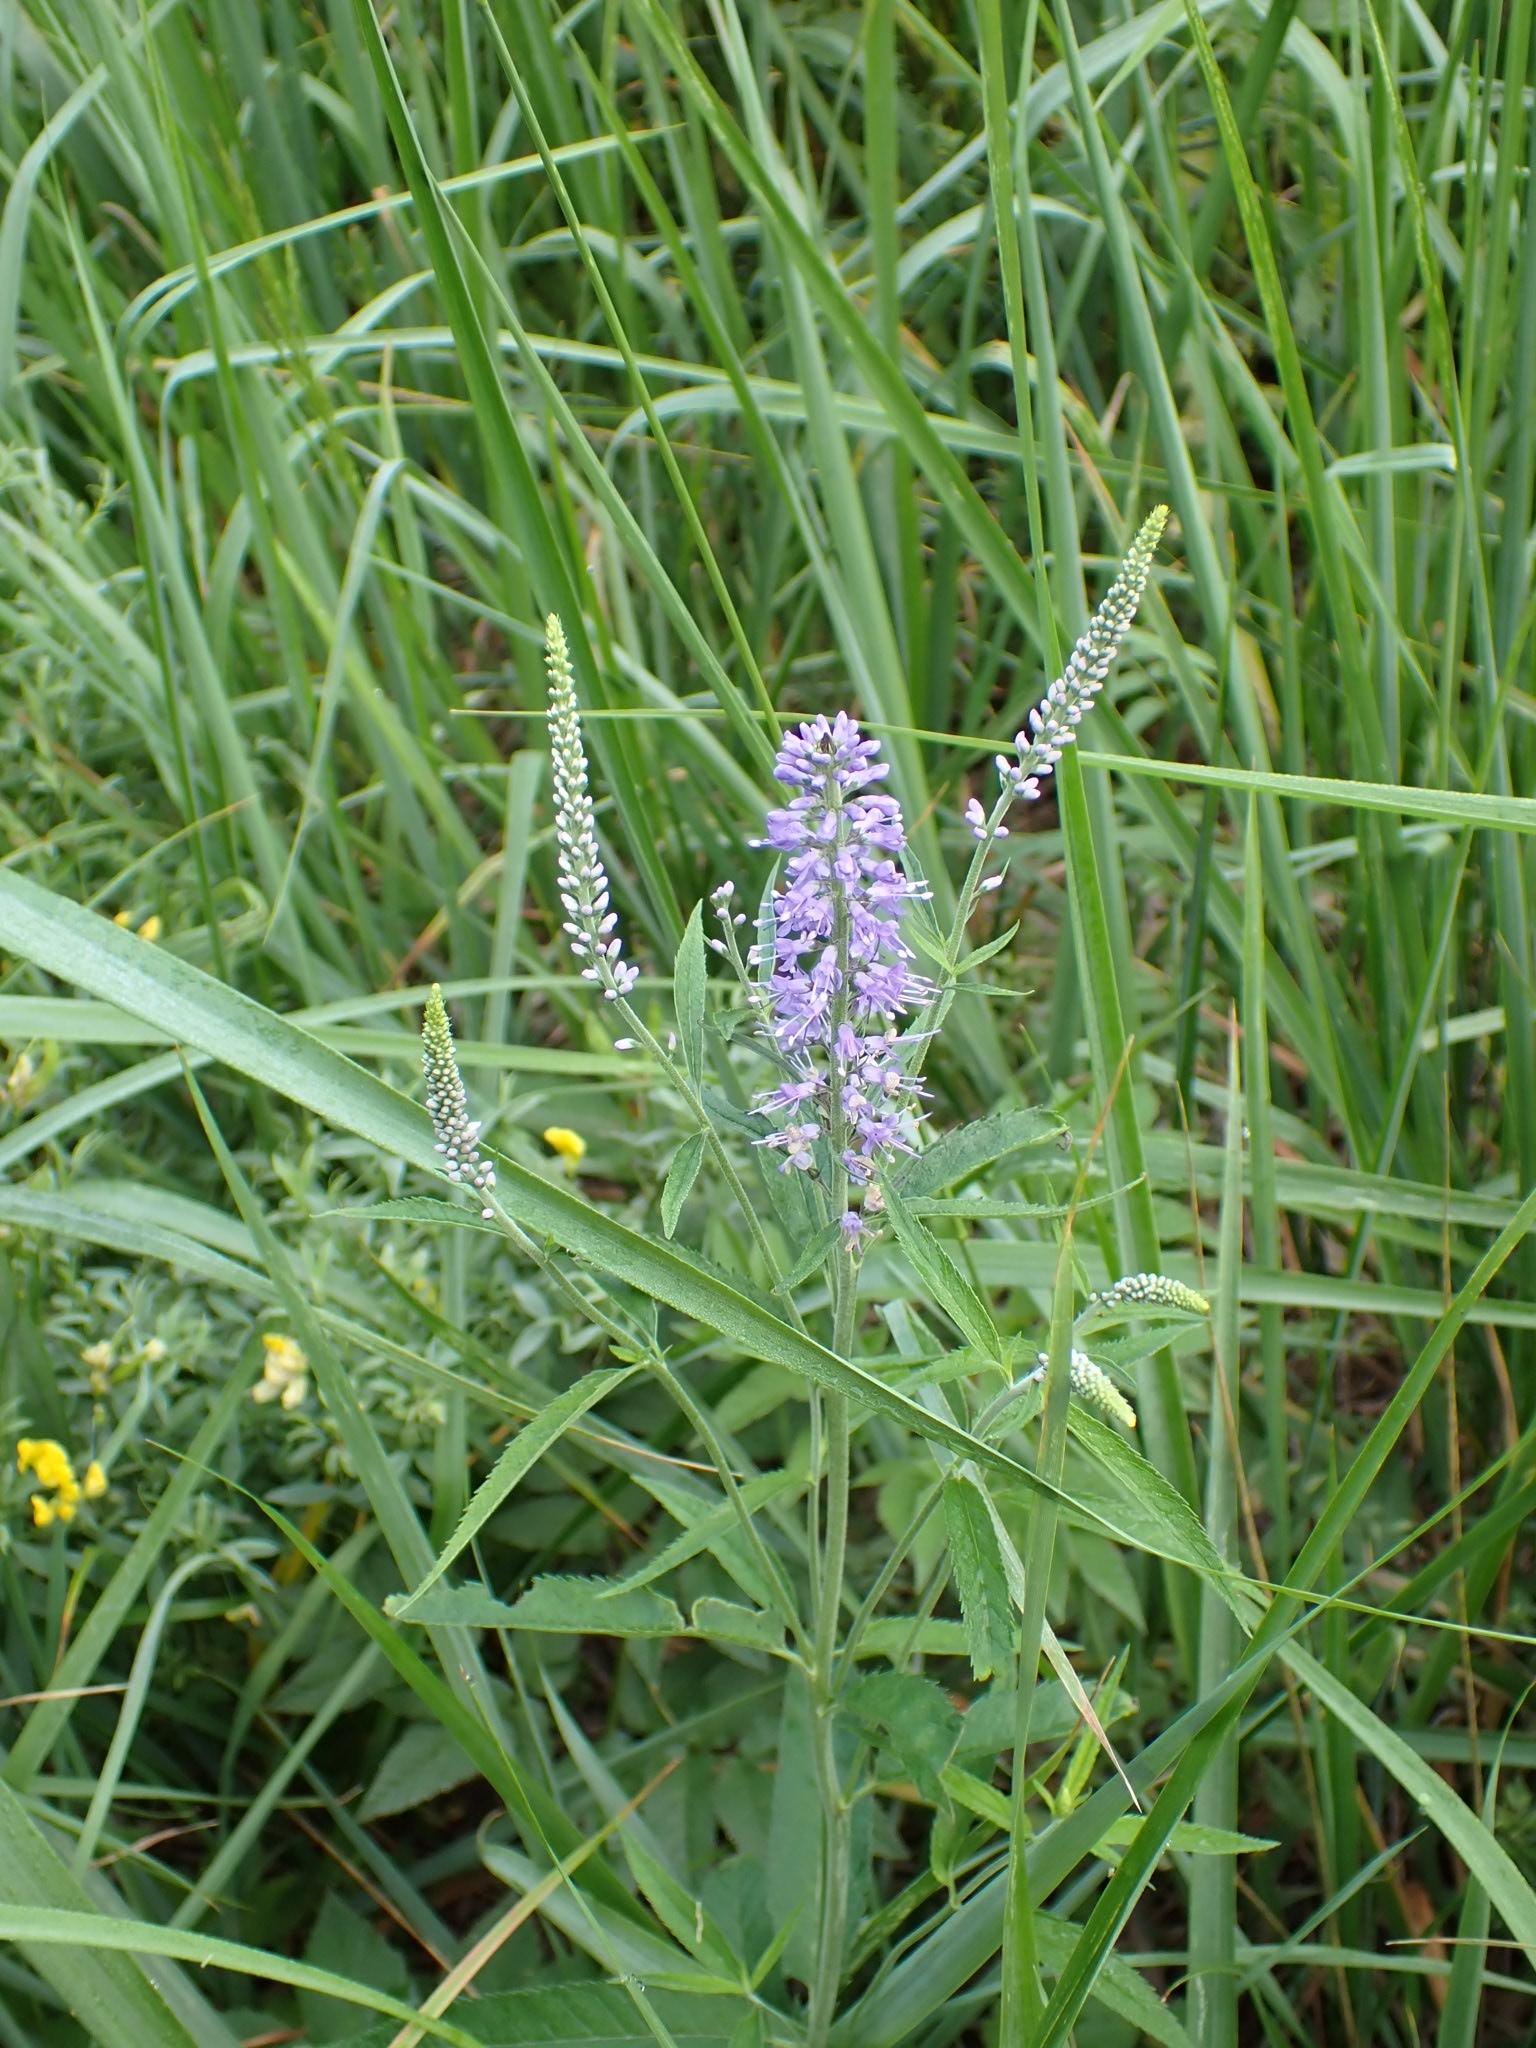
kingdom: Plantae
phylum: Tracheophyta
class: Magnoliopsida
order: Lamiales
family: Plantaginaceae
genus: Veronica
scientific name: Veronica longifolia
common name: Garden speedwell
